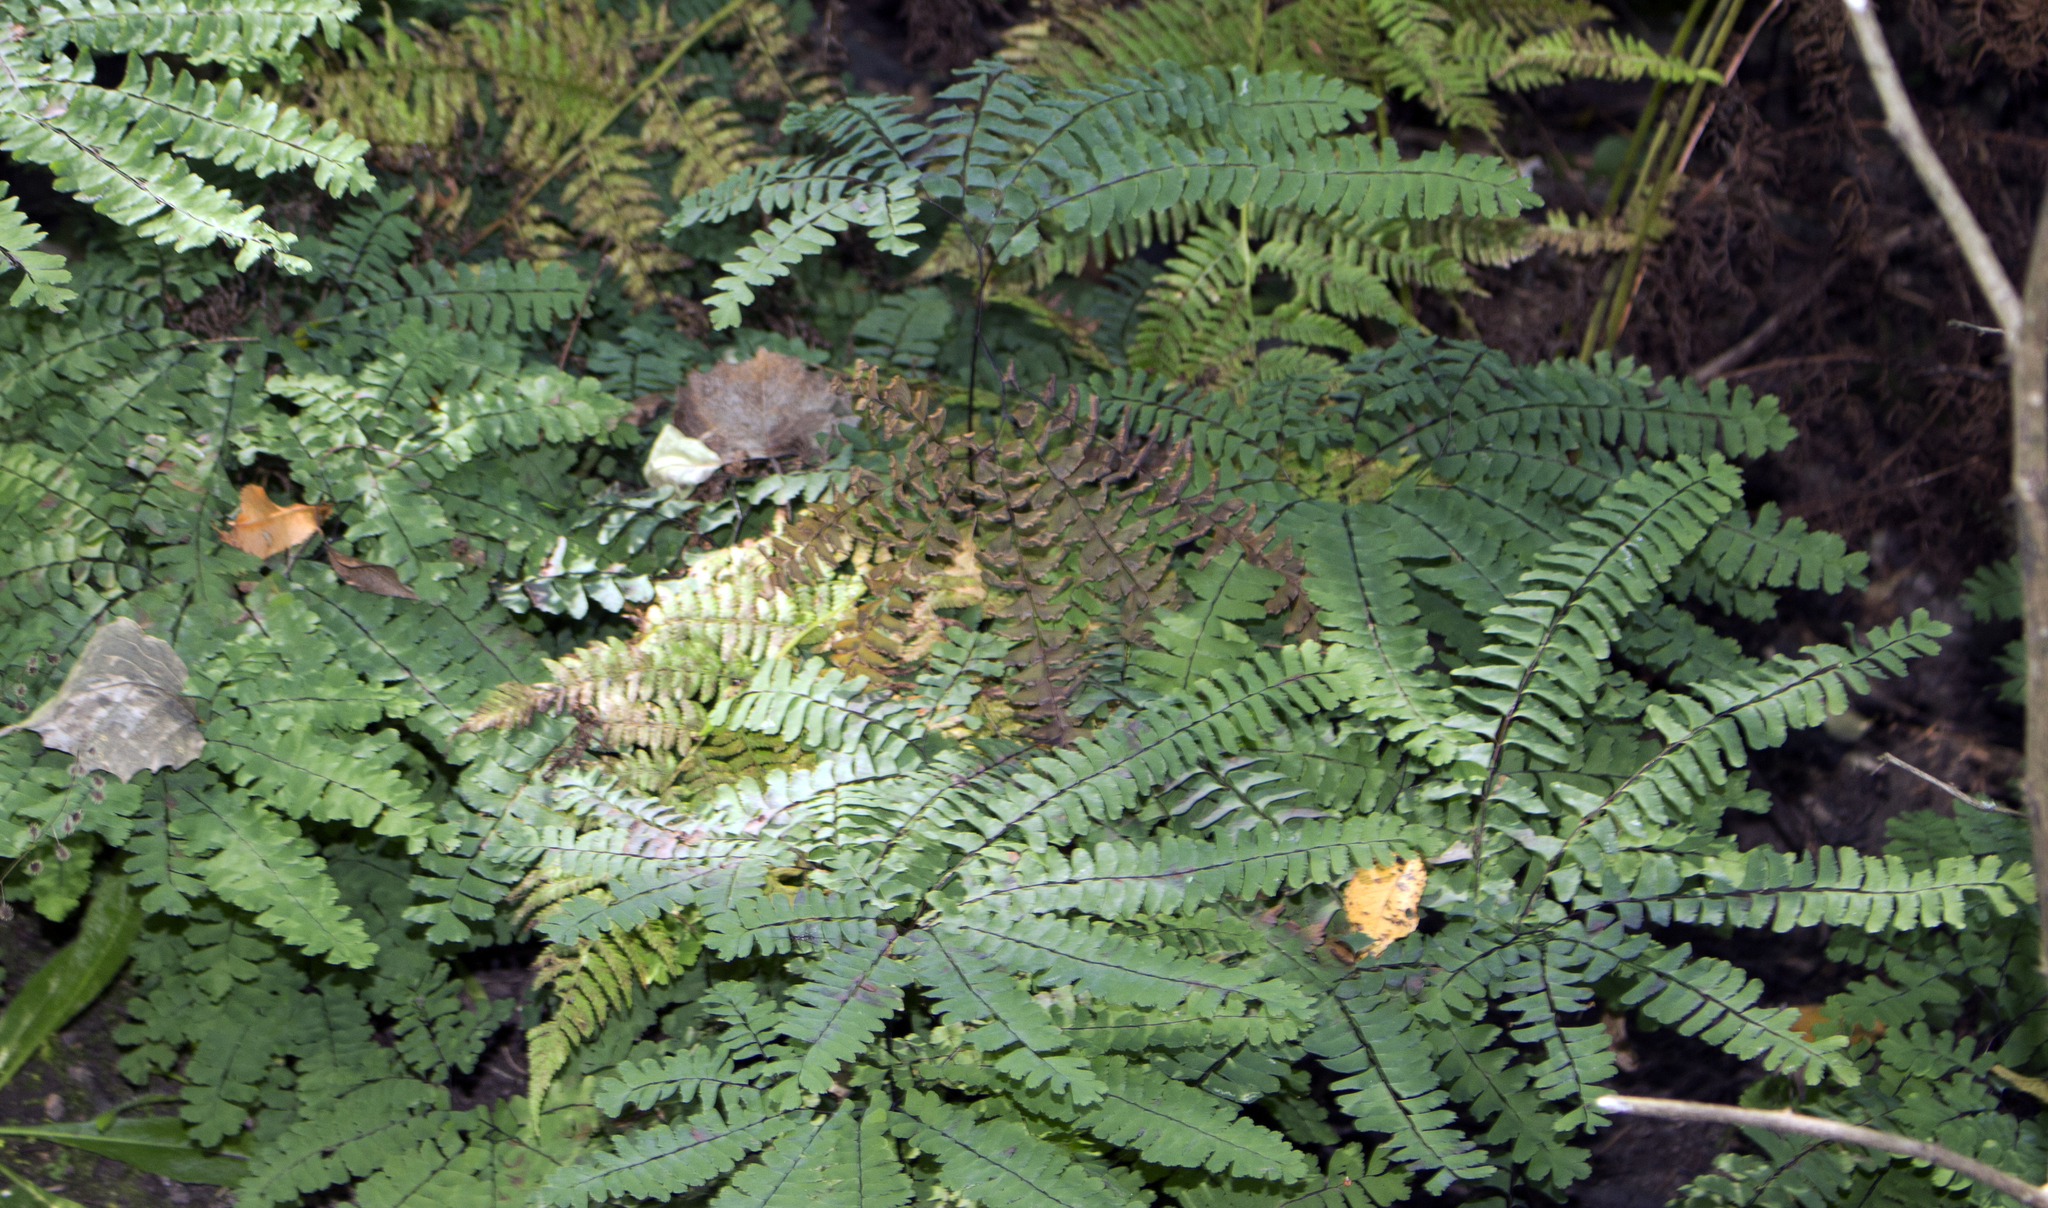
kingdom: Plantae
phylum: Tracheophyta
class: Polypodiopsida
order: Polypodiales
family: Pteridaceae
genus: Adiantum
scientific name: Adiantum pedatum
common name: Five-finger fern
